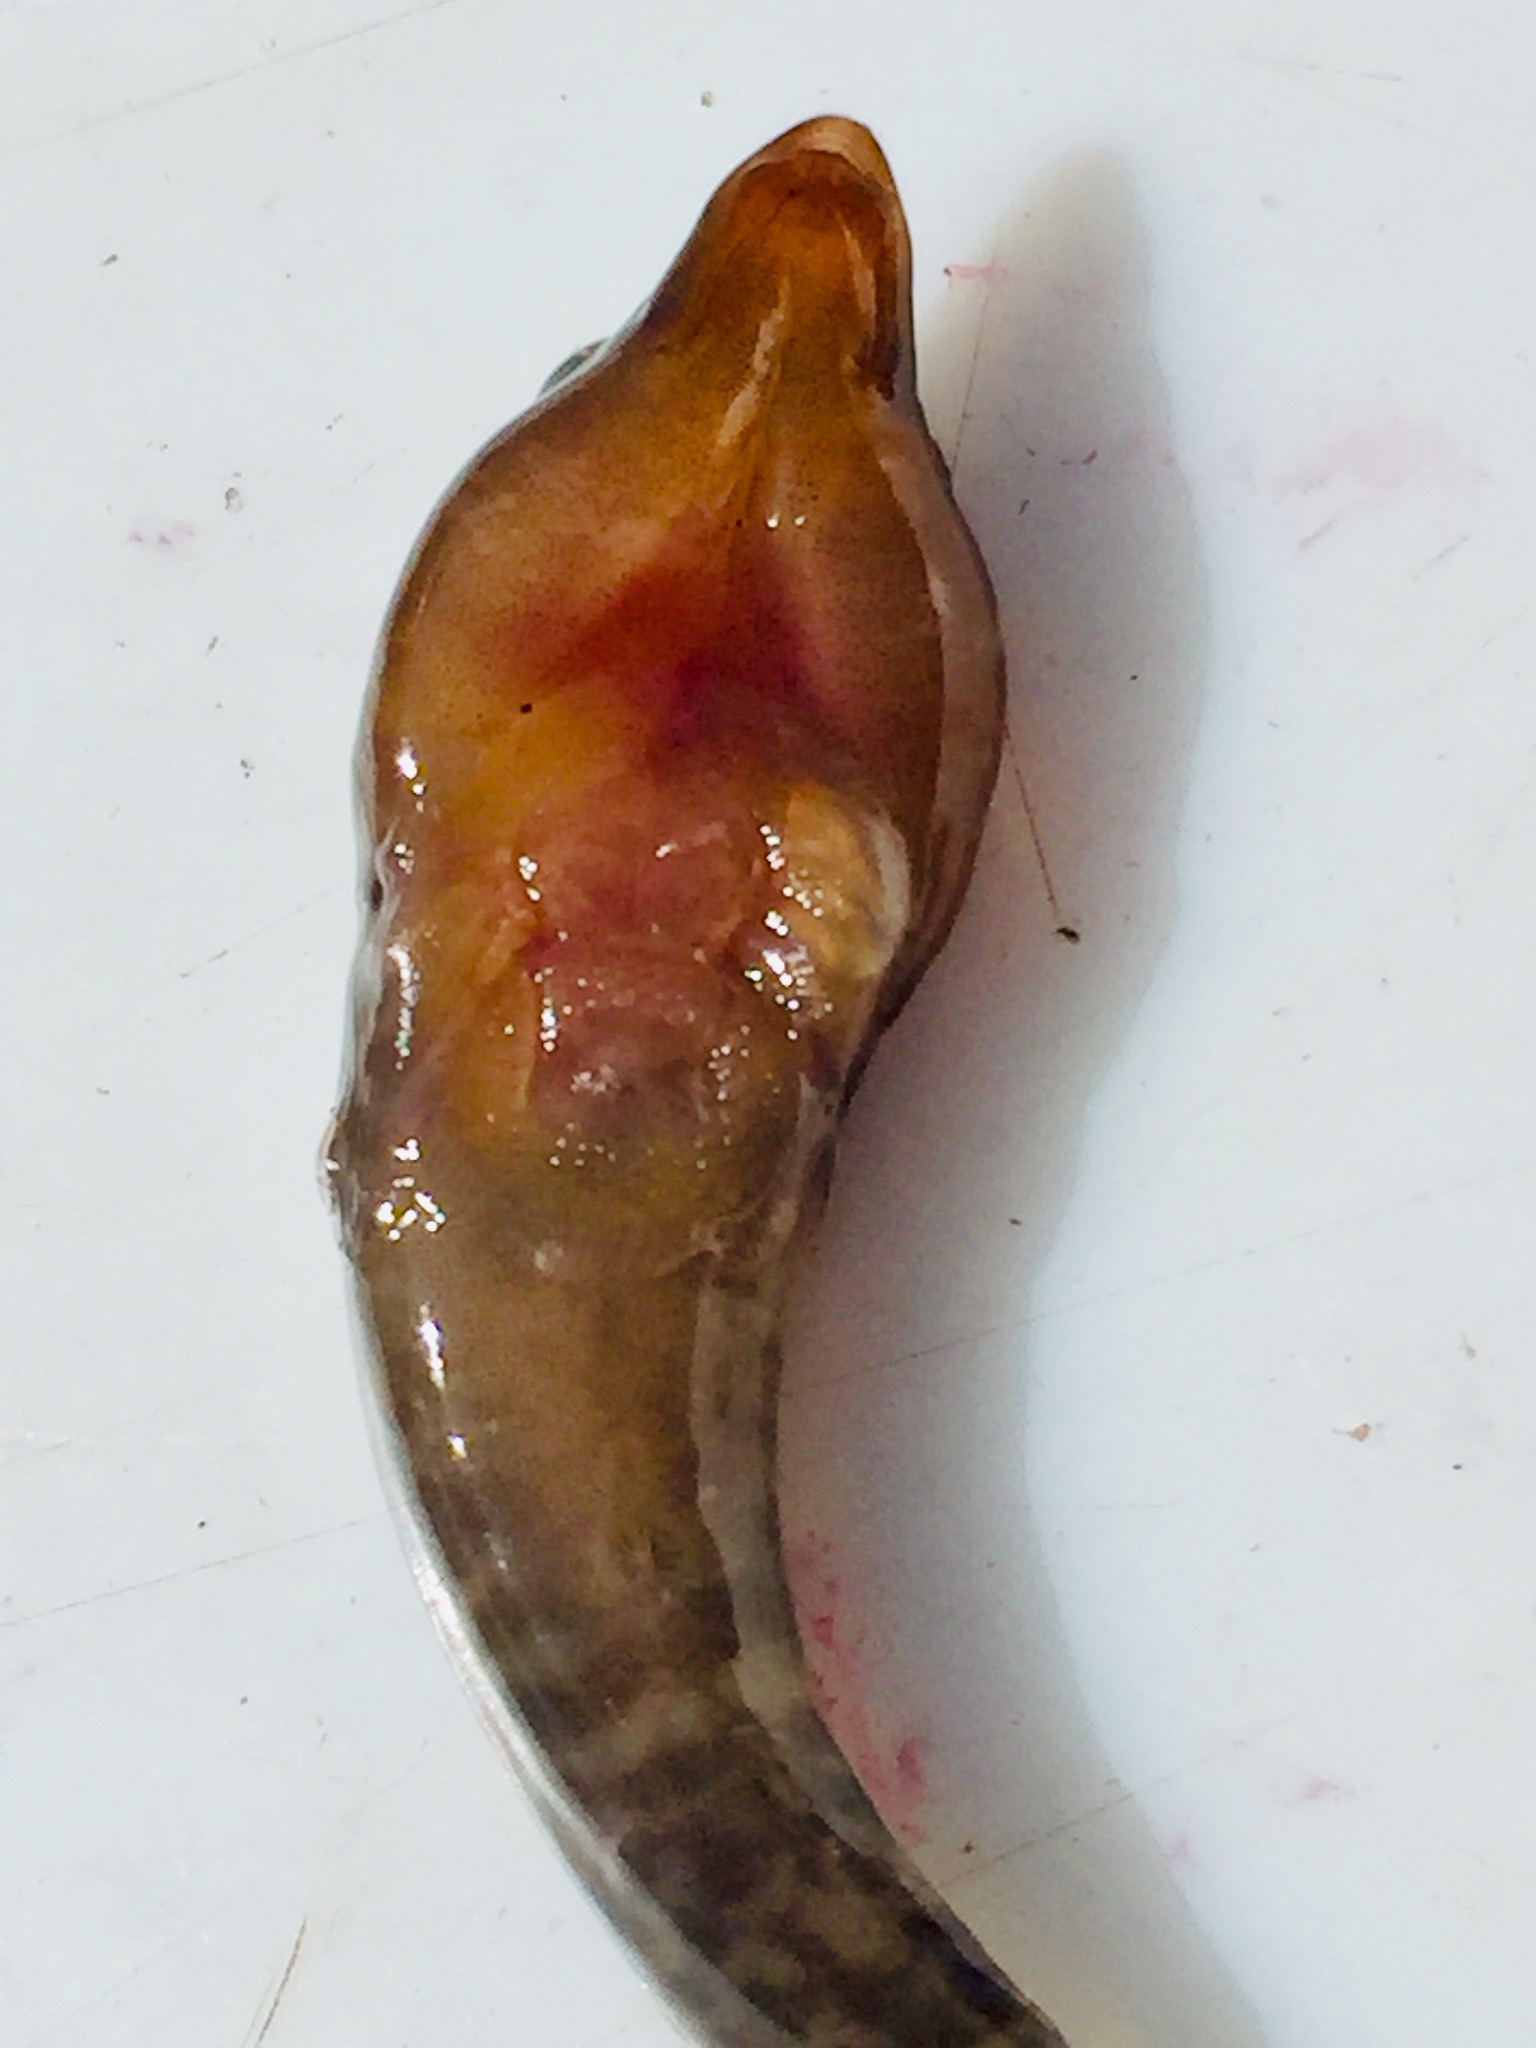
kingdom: Animalia
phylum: Chordata
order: Gobiesociformes
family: Gobiesocidae
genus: Dellichthys
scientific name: Dellichthys morelandi
